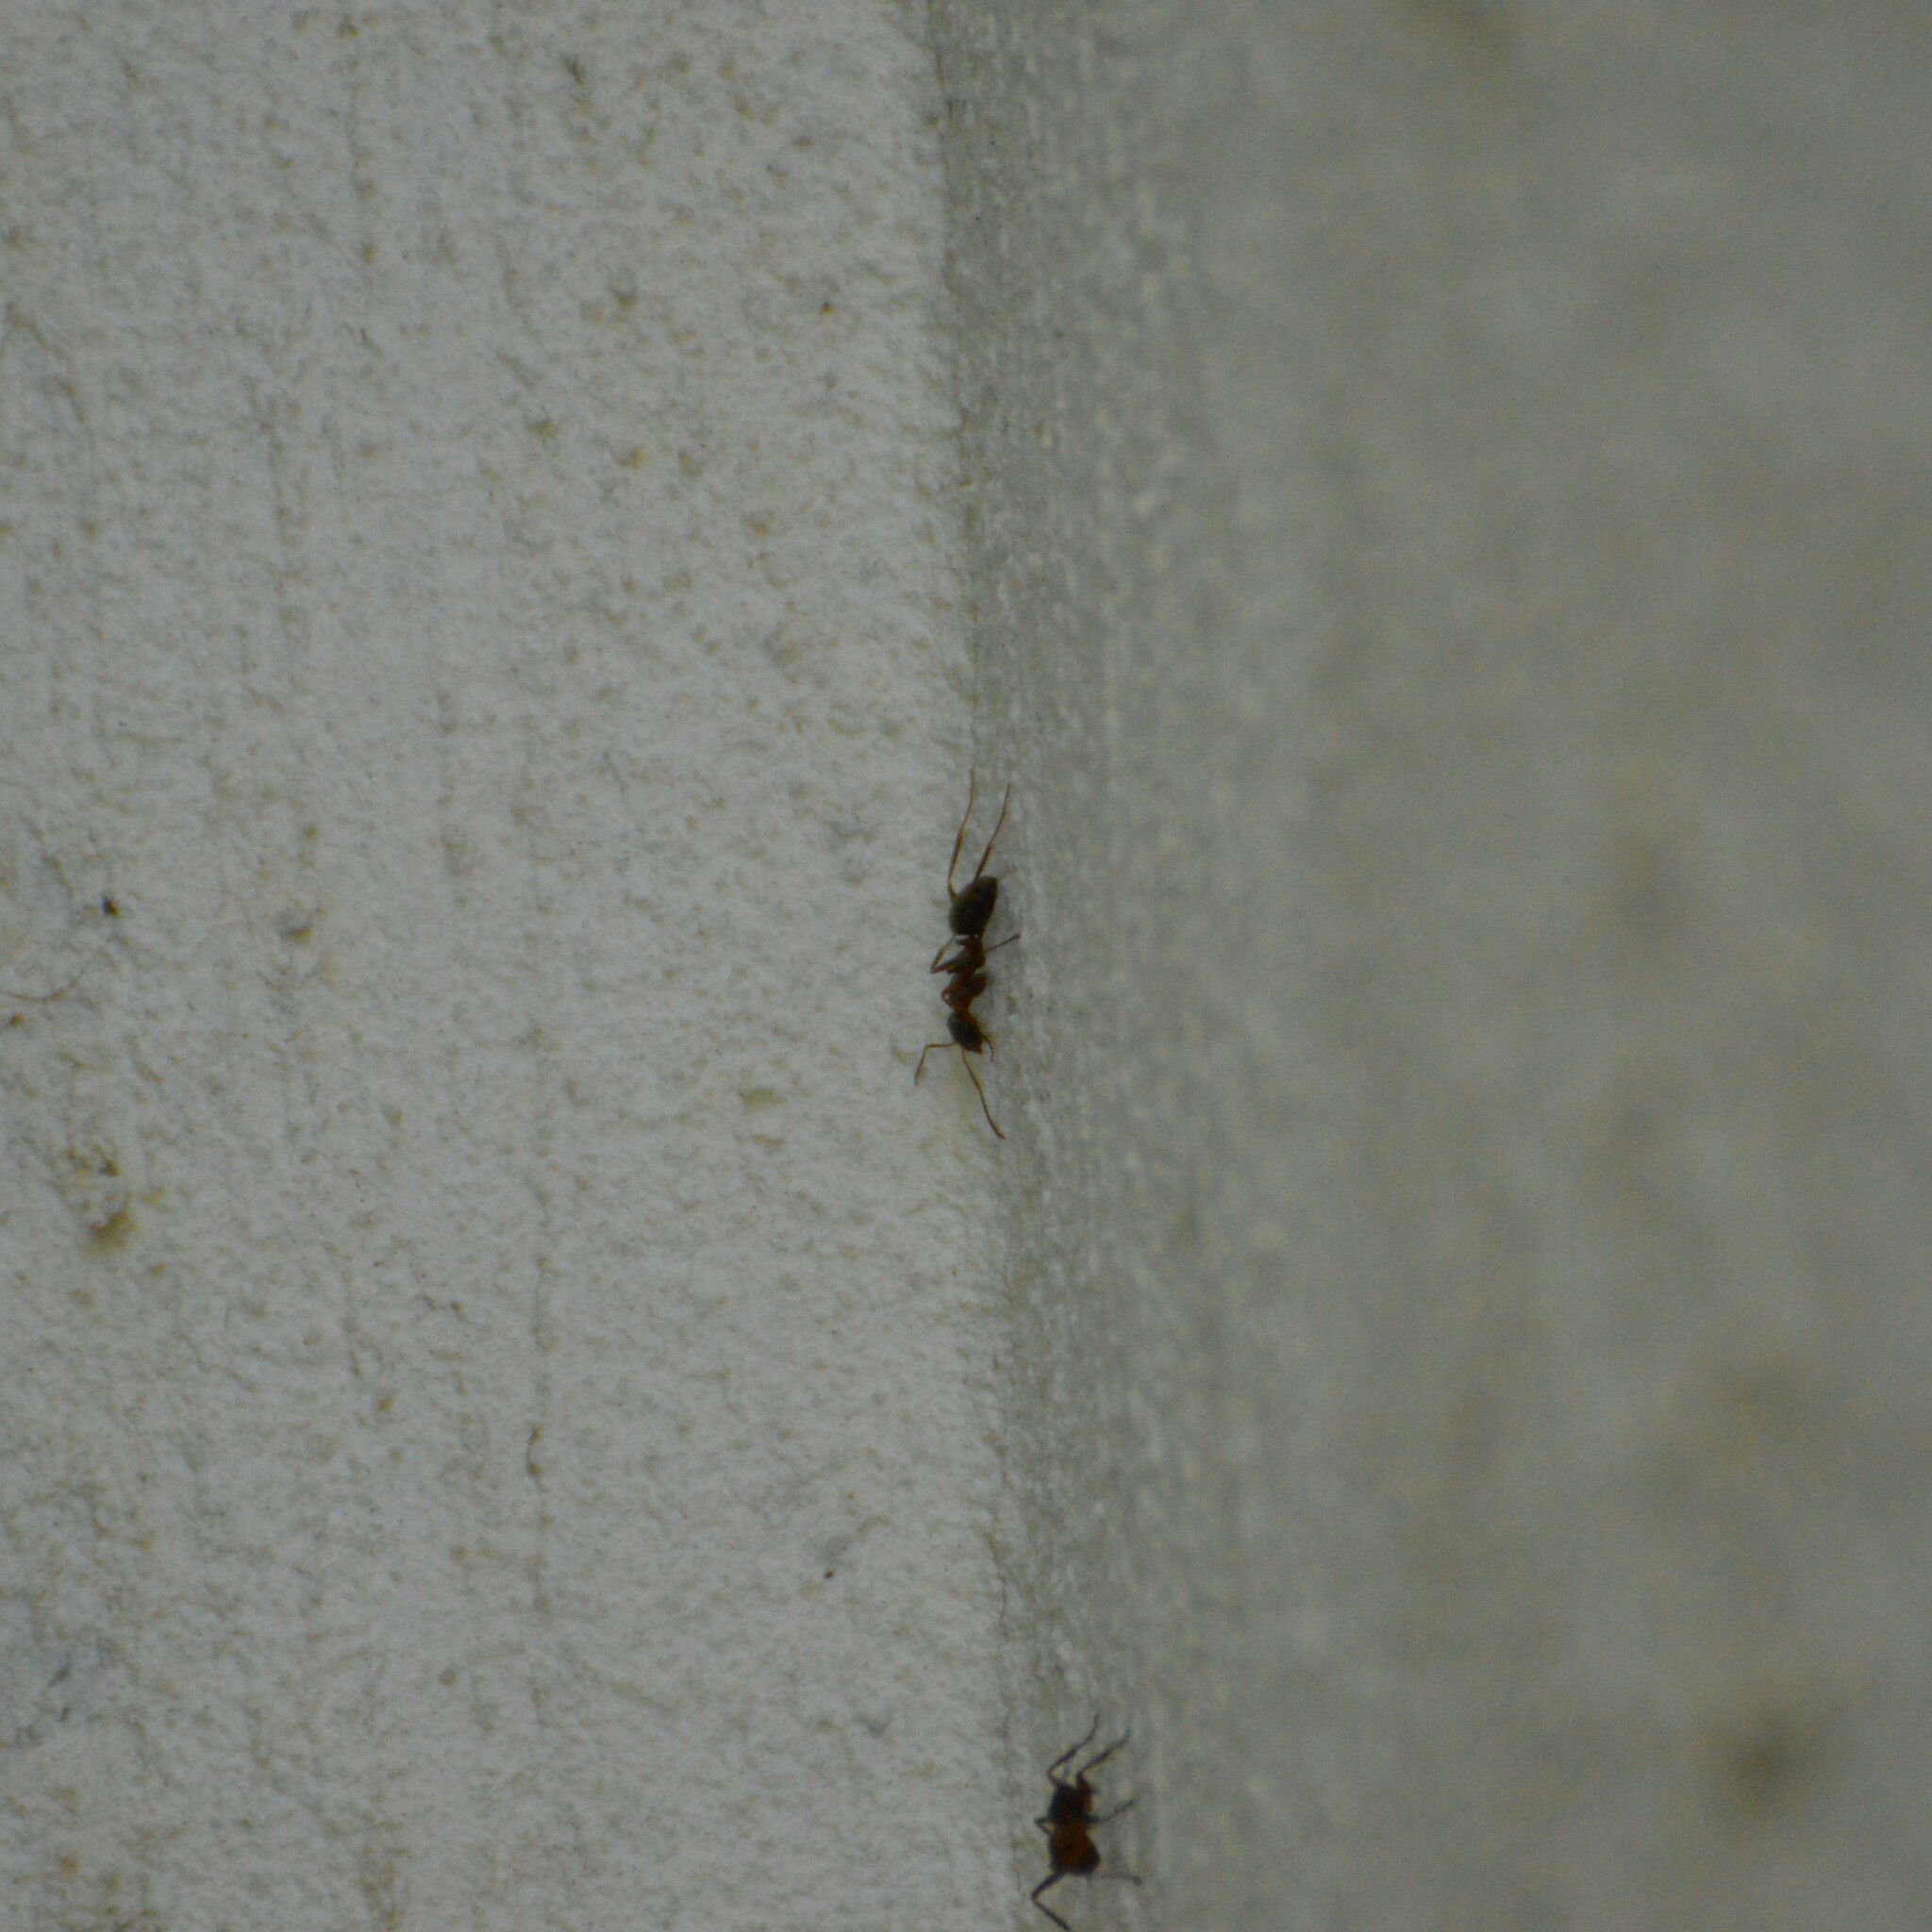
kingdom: Animalia
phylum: Arthropoda
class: Insecta
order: Hymenoptera
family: Formicidae
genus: Formica
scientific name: Formica
